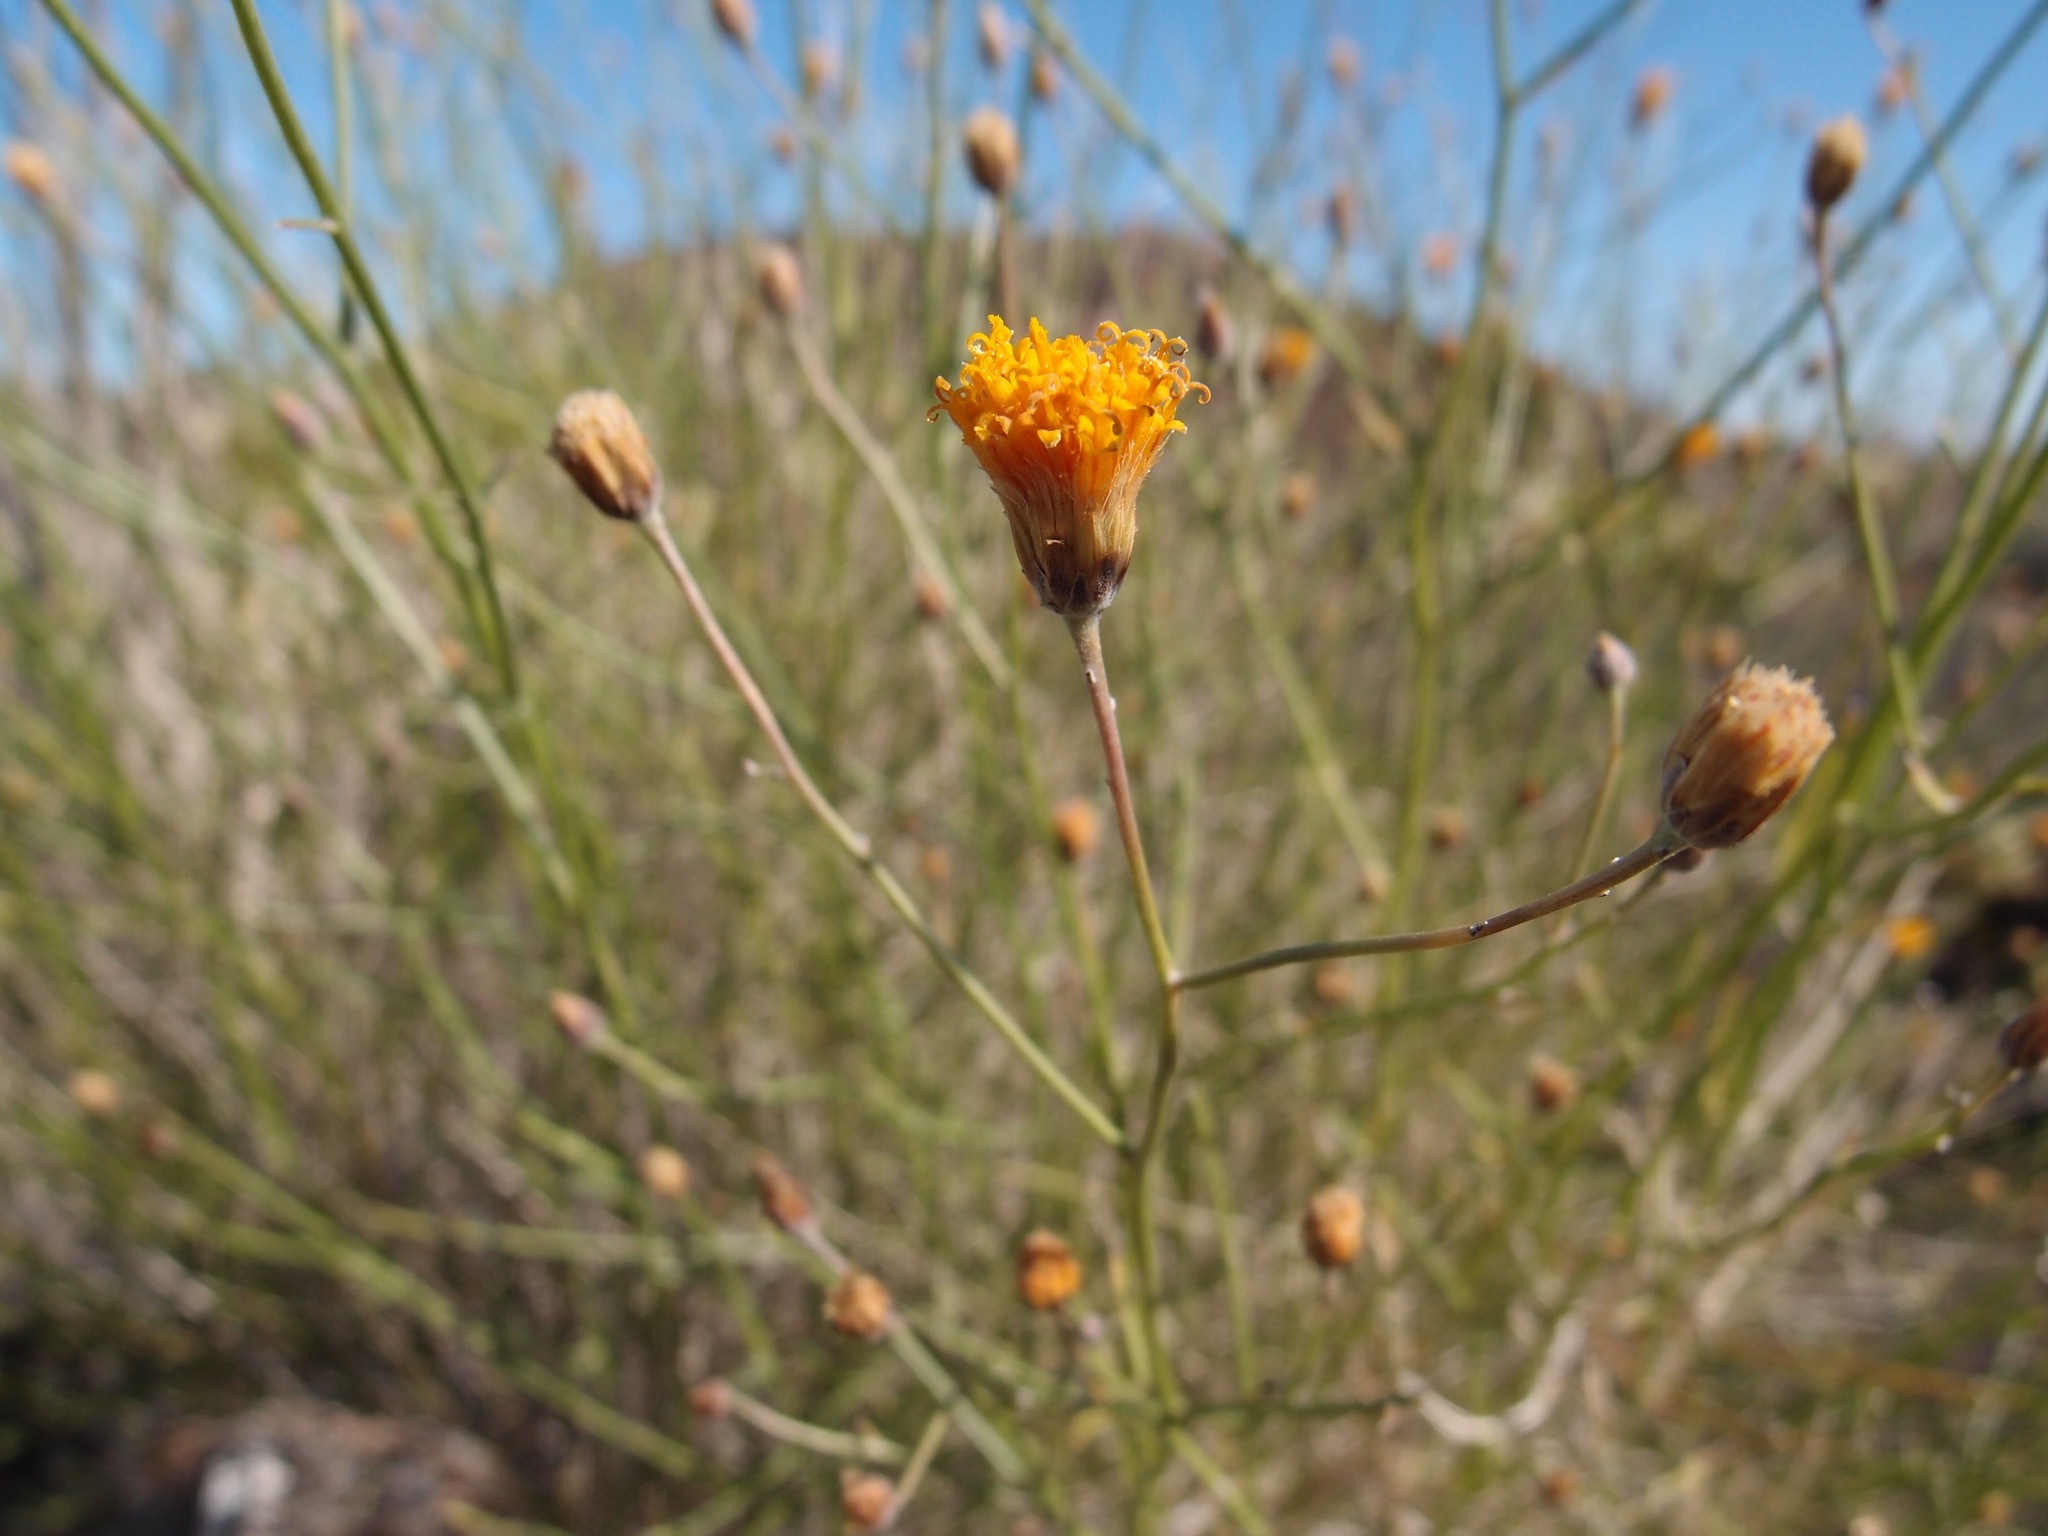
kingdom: Plantae
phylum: Tracheophyta
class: Magnoliopsida
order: Asterales
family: Asteraceae
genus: Bebbia
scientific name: Bebbia juncea
